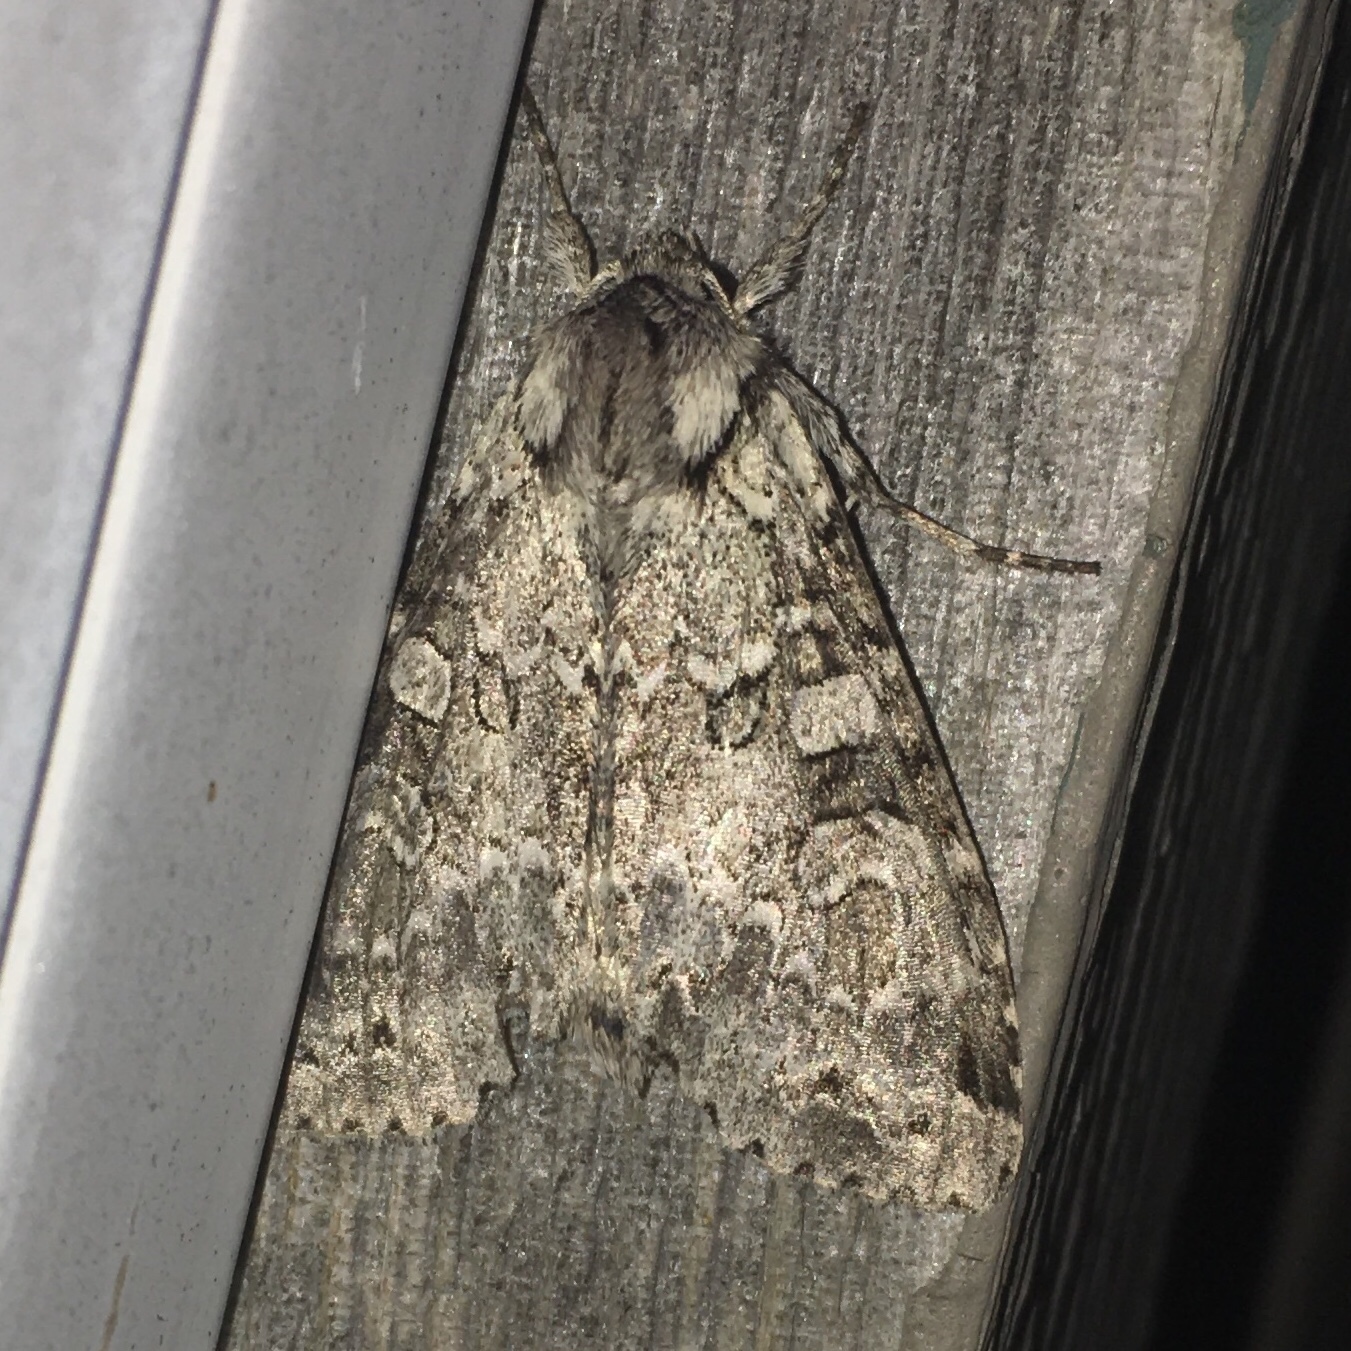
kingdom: Animalia
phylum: Arthropoda
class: Insecta
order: Lepidoptera
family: Noctuidae
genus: Polia
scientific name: Polia imbrifera
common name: Cloudy arches moth
